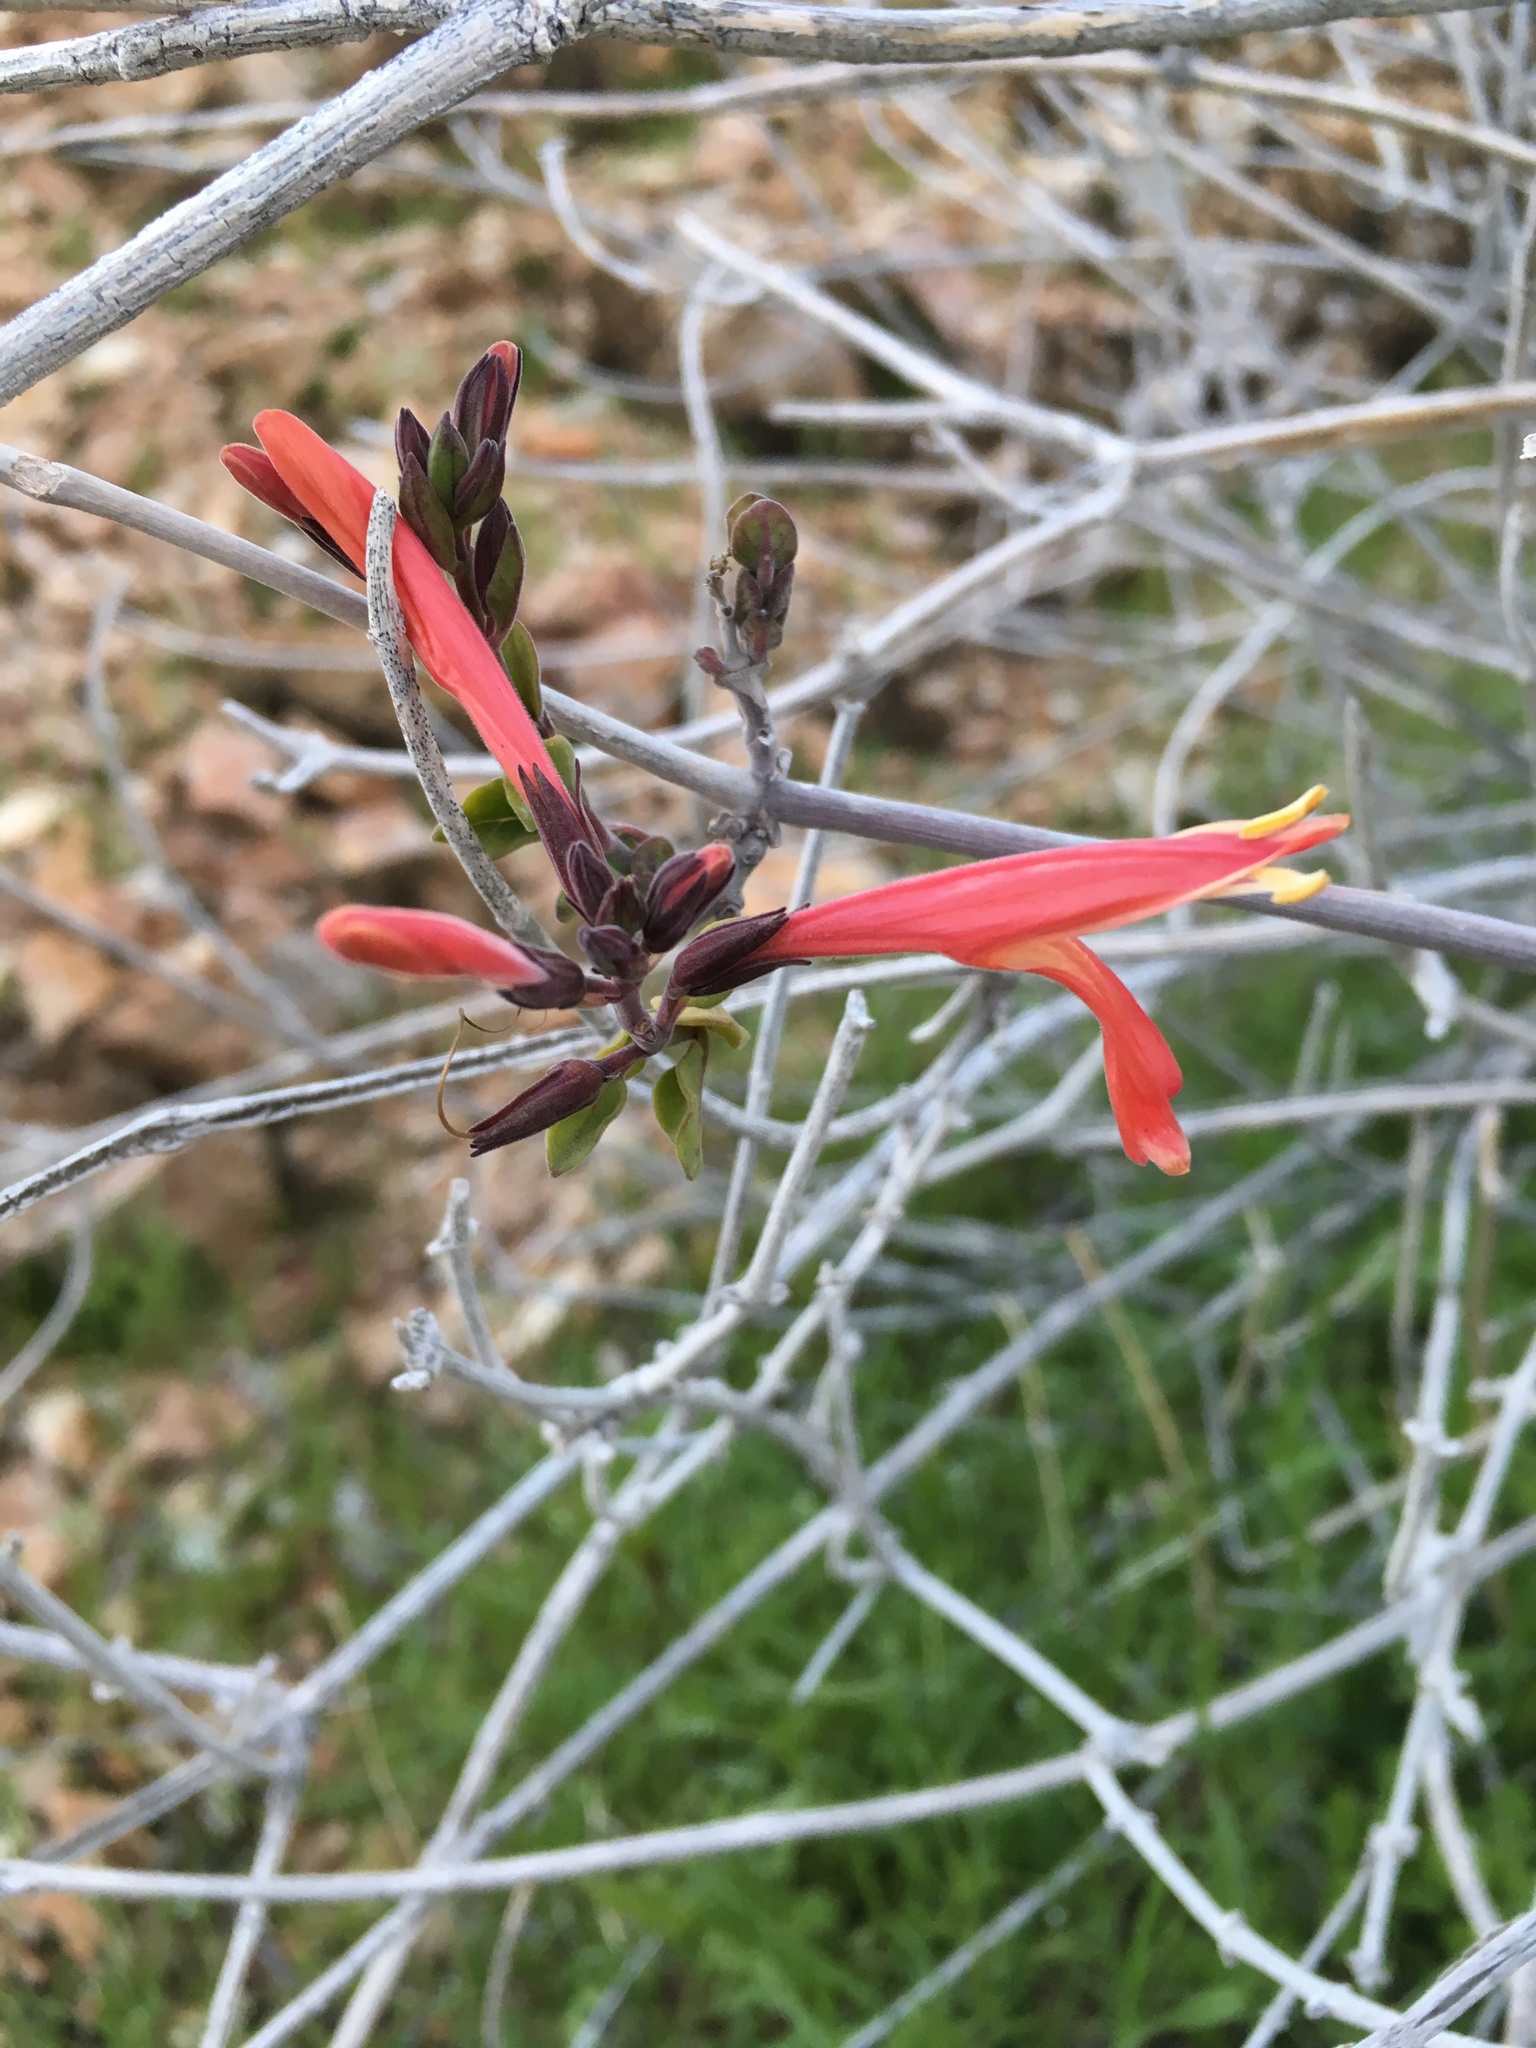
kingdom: Plantae
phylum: Tracheophyta
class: Magnoliopsida
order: Lamiales
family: Acanthaceae
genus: Justicia
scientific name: Justicia californica
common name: Chuparosa-honeysuckle
